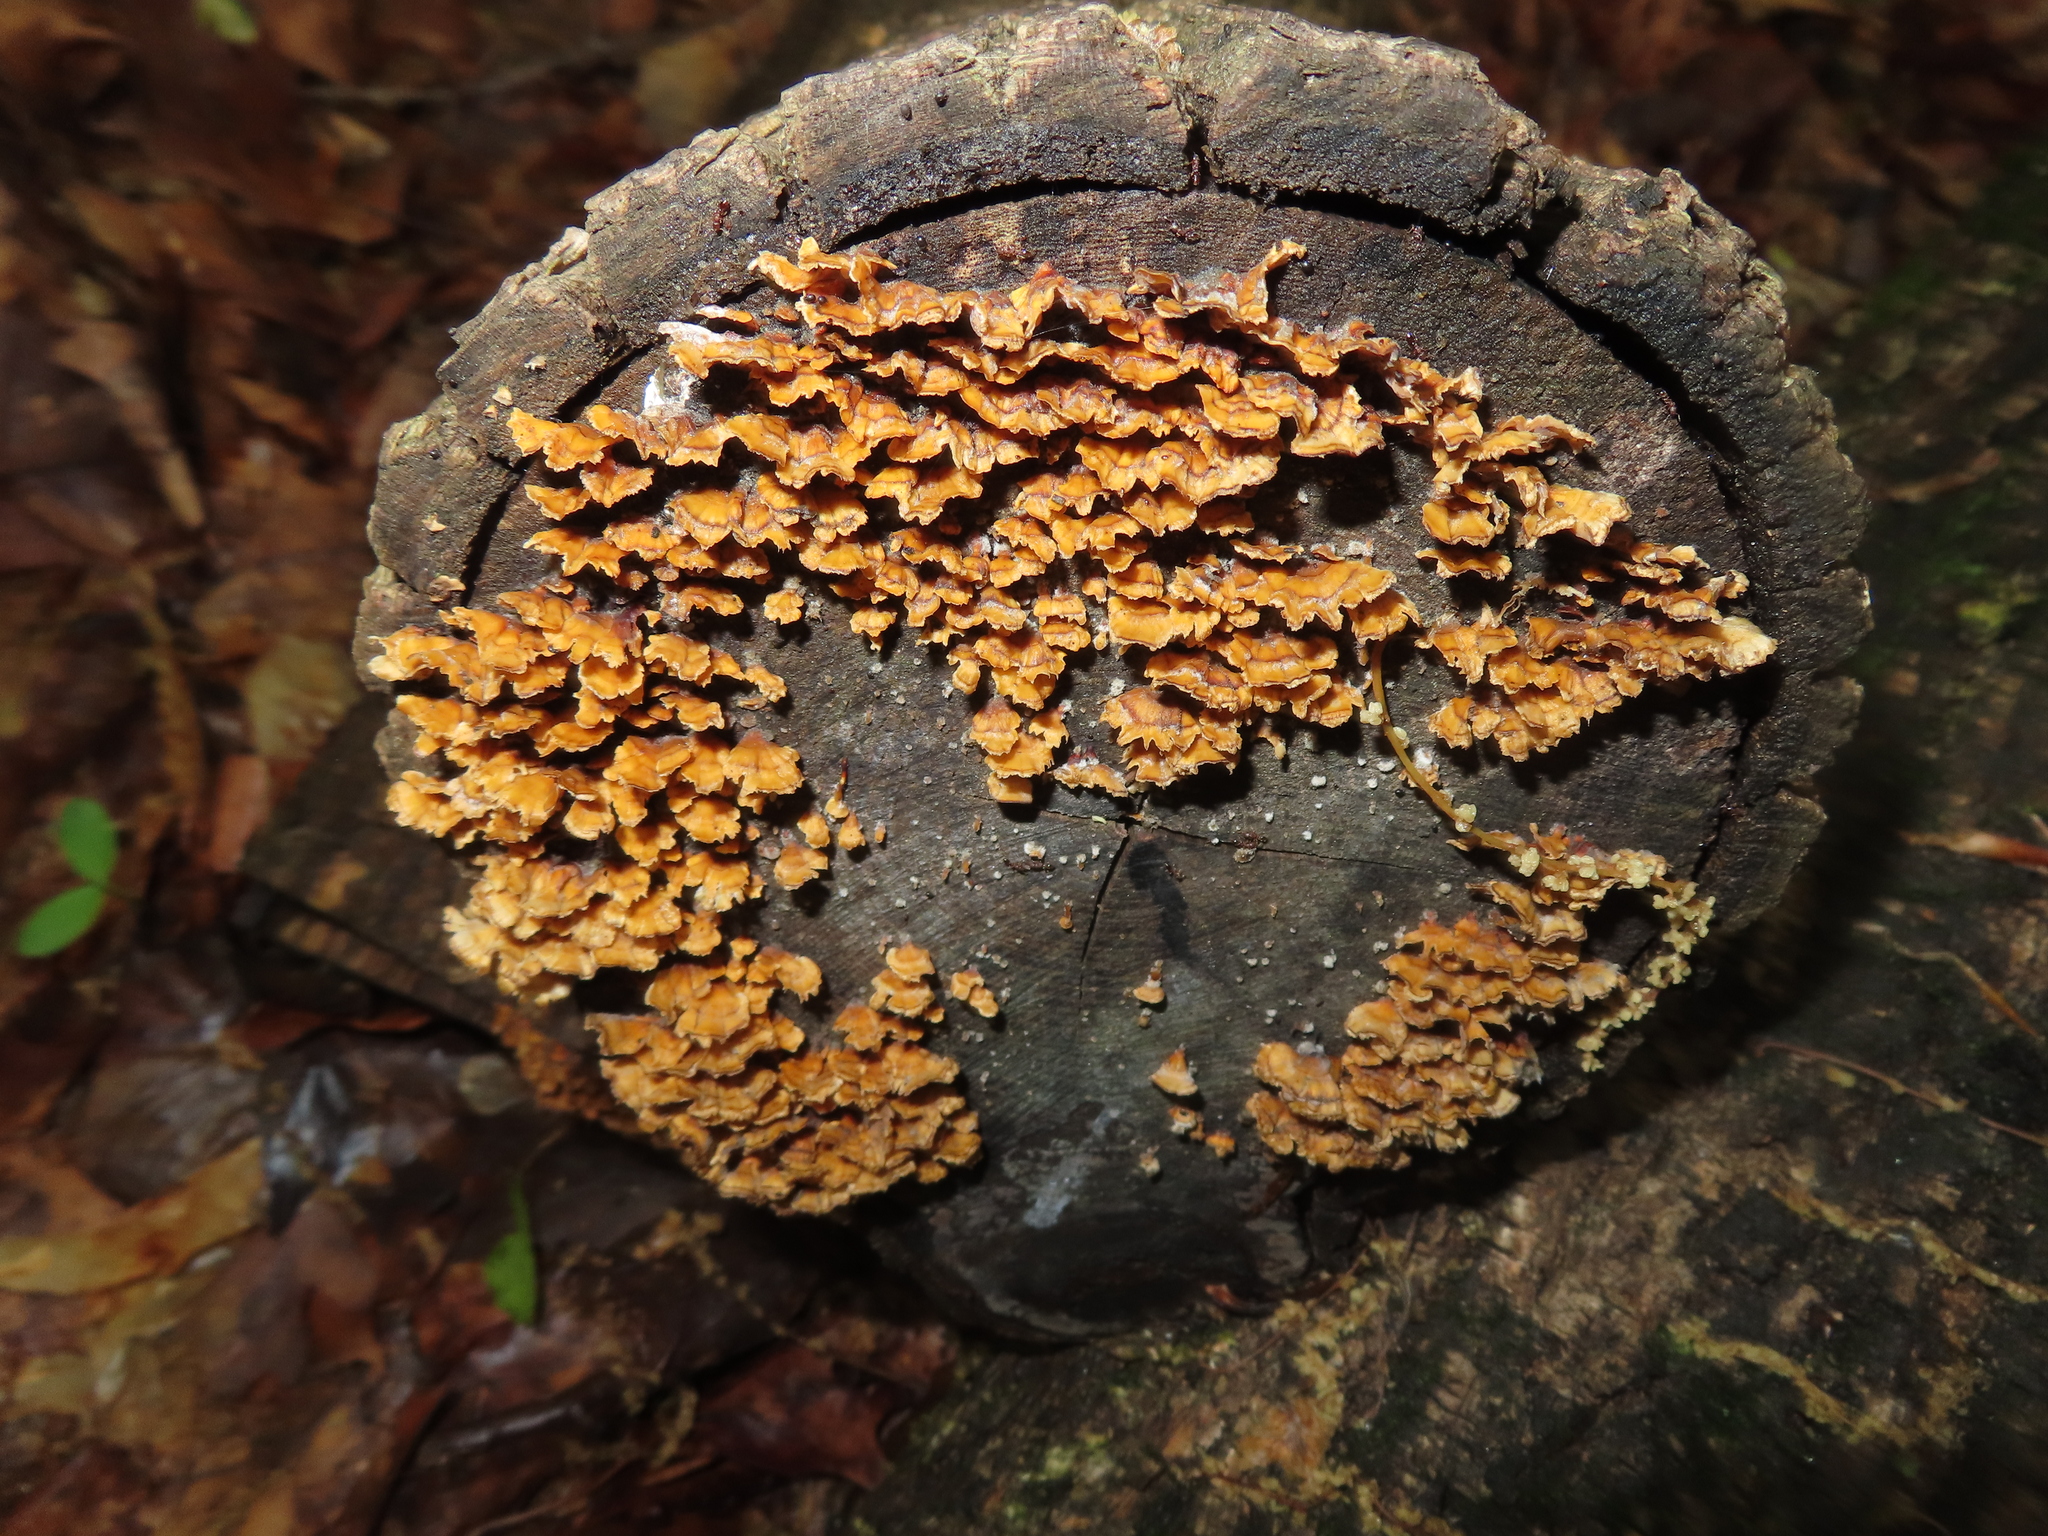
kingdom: Fungi
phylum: Basidiomycota
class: Agaricomycetes
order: Russulales
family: Stereaceae
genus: Stereum
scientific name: Stereum complicatum
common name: Crowded parchment
